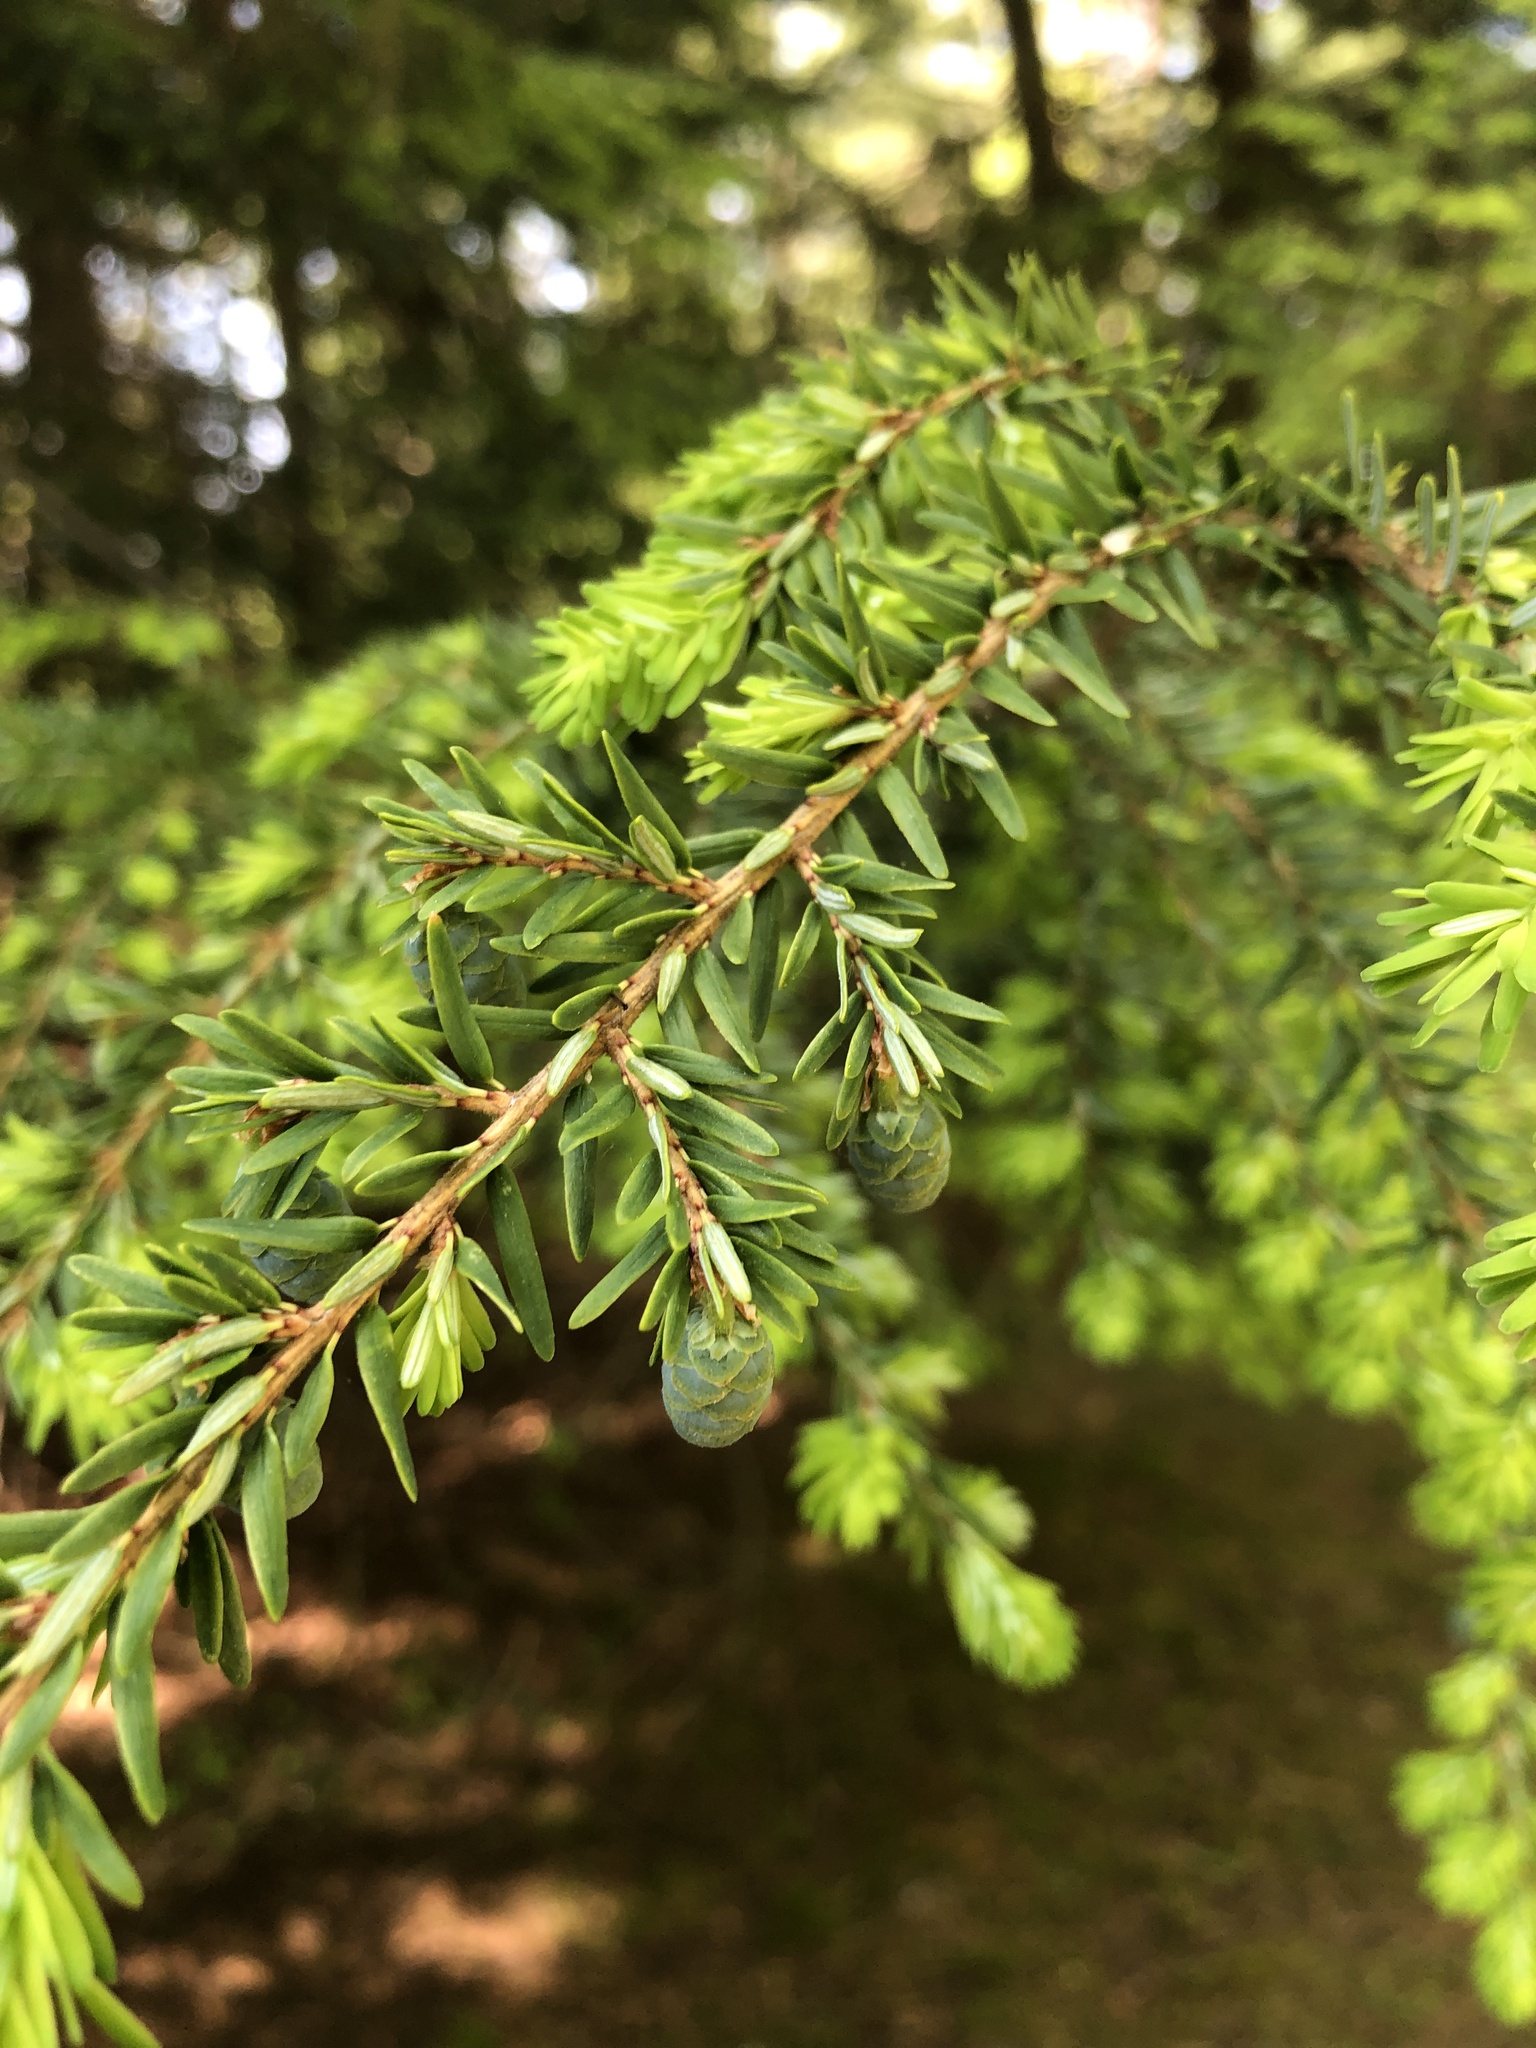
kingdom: Plantae
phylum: Tracheophyta
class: Pinopsida
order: Pinales
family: Pinaceae
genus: Tsuga
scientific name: Tsuga canadensis
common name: Eastern hemlock
